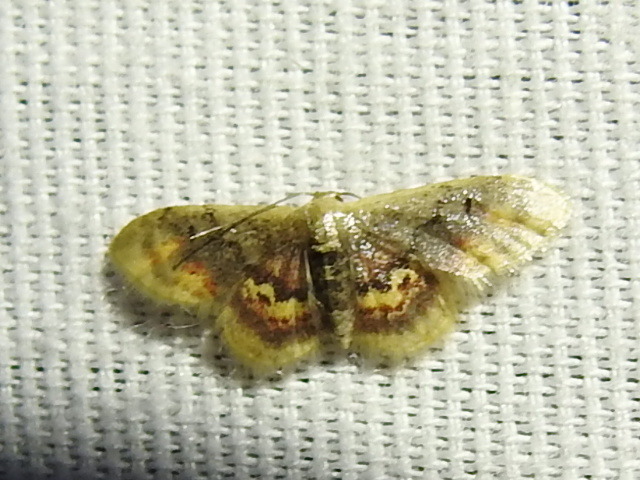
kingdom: Animalia
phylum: Arthropoda
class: Insecta
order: Lepidoptera
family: Geometridae
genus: Idaea
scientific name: Idaea scintillularia
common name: Diminutive wave
